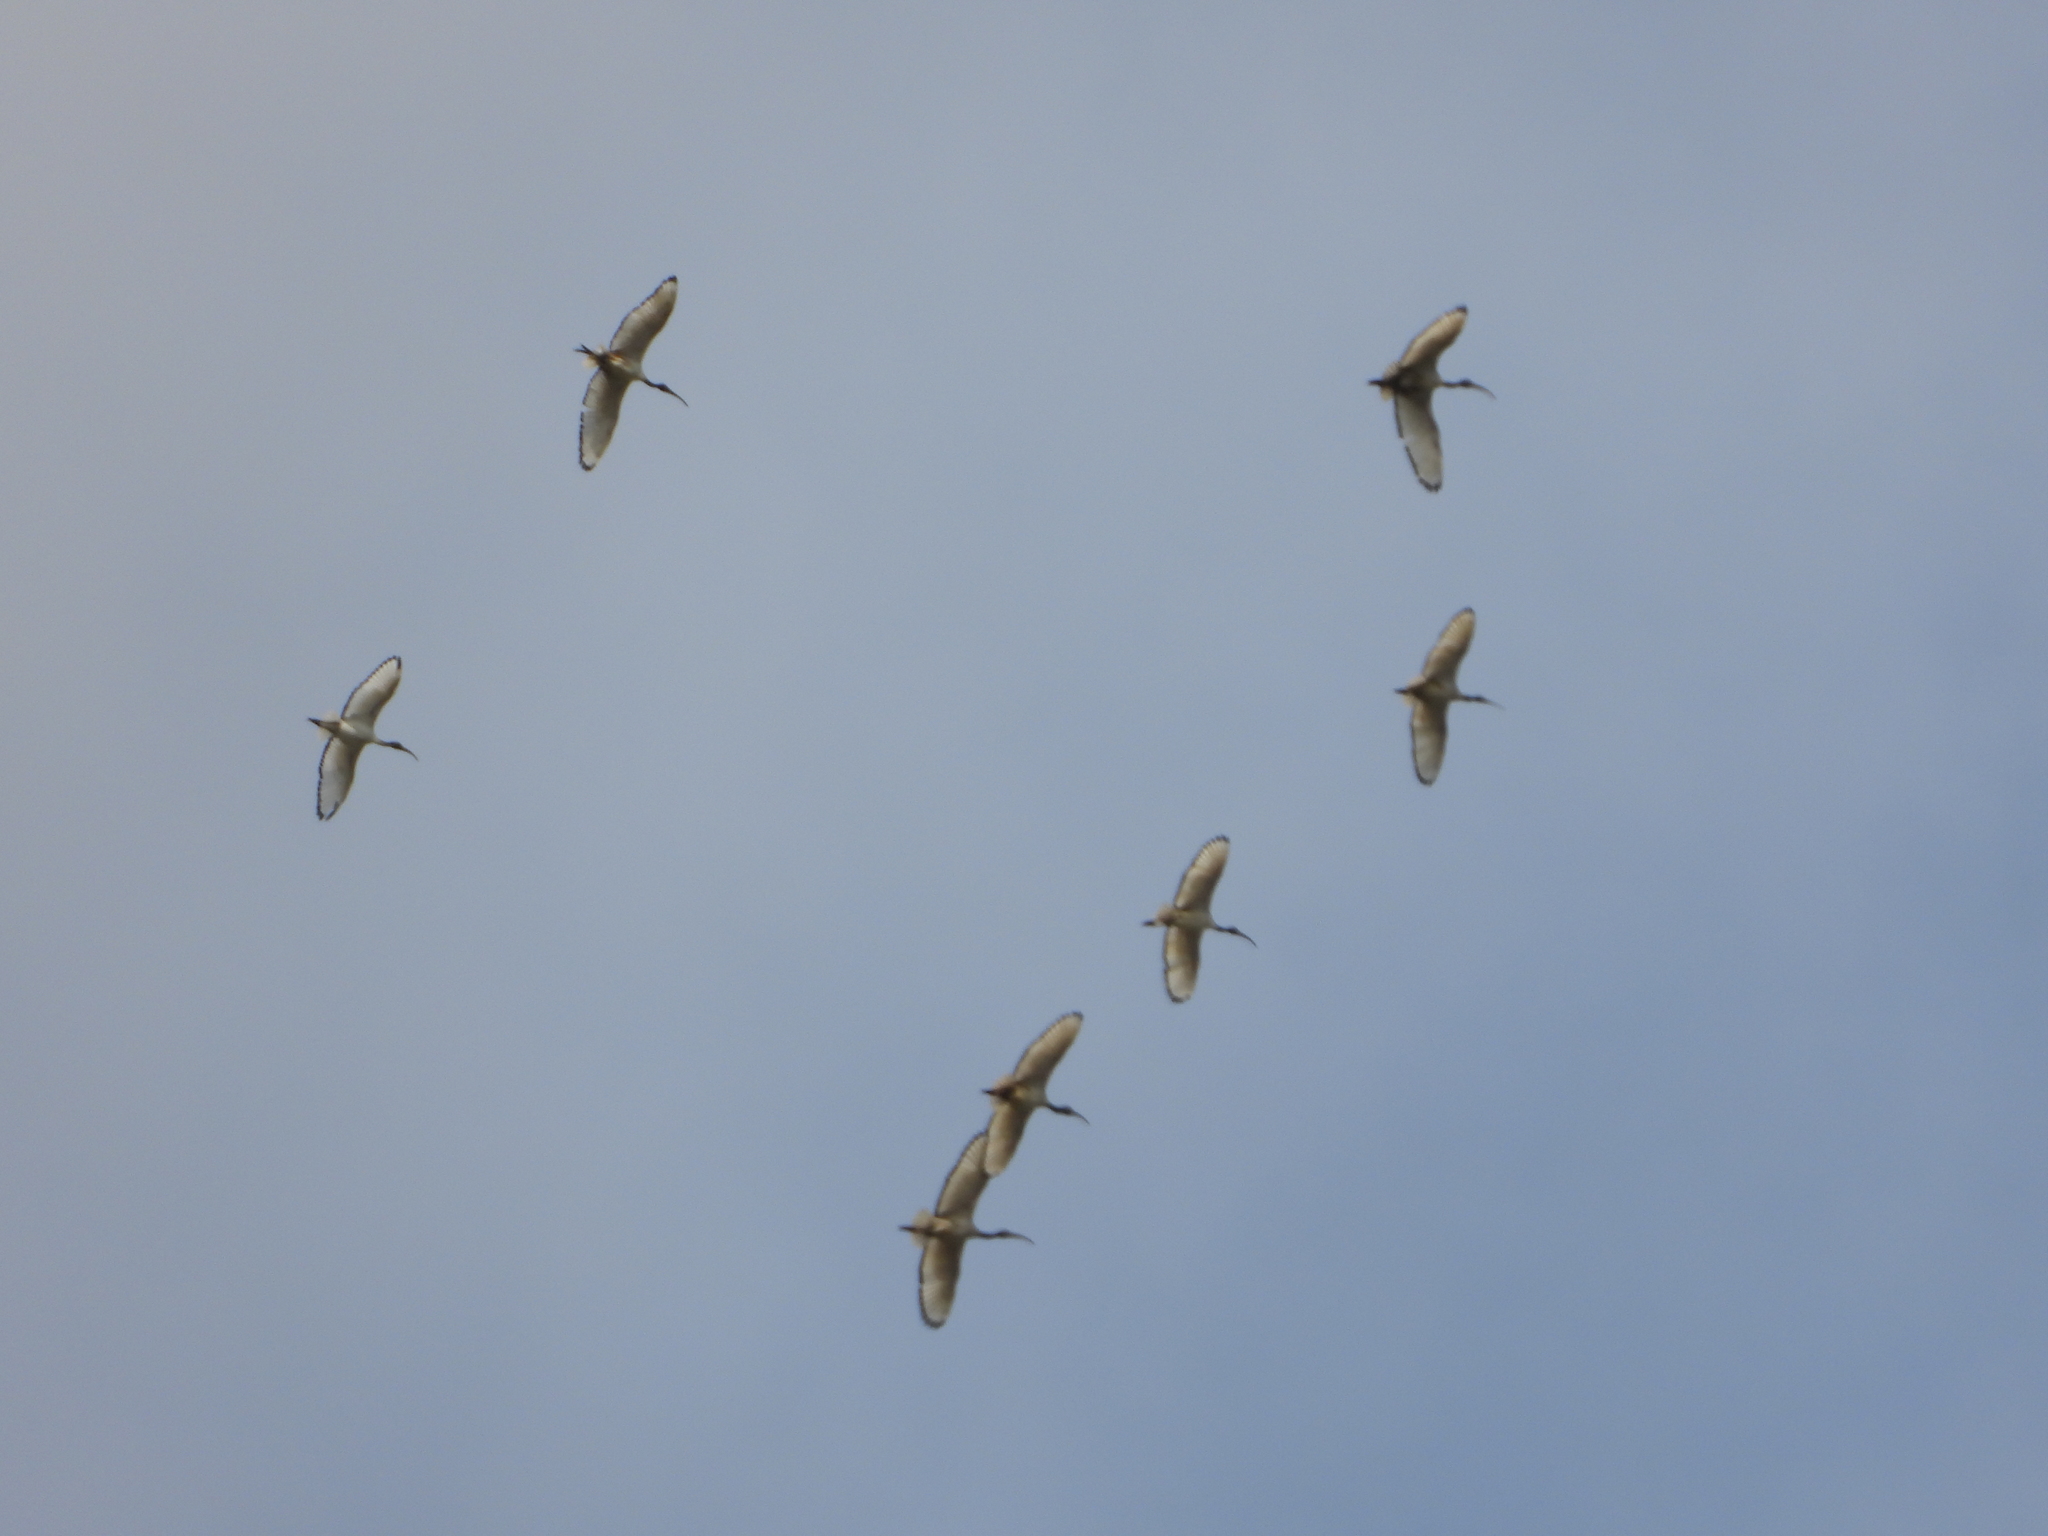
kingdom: Animalia
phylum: Chordata
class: Aves
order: Pelecaniformes
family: Threskiornithidae
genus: Threskiornis
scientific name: Threskiornis aethiopicus
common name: Sacred ibis
